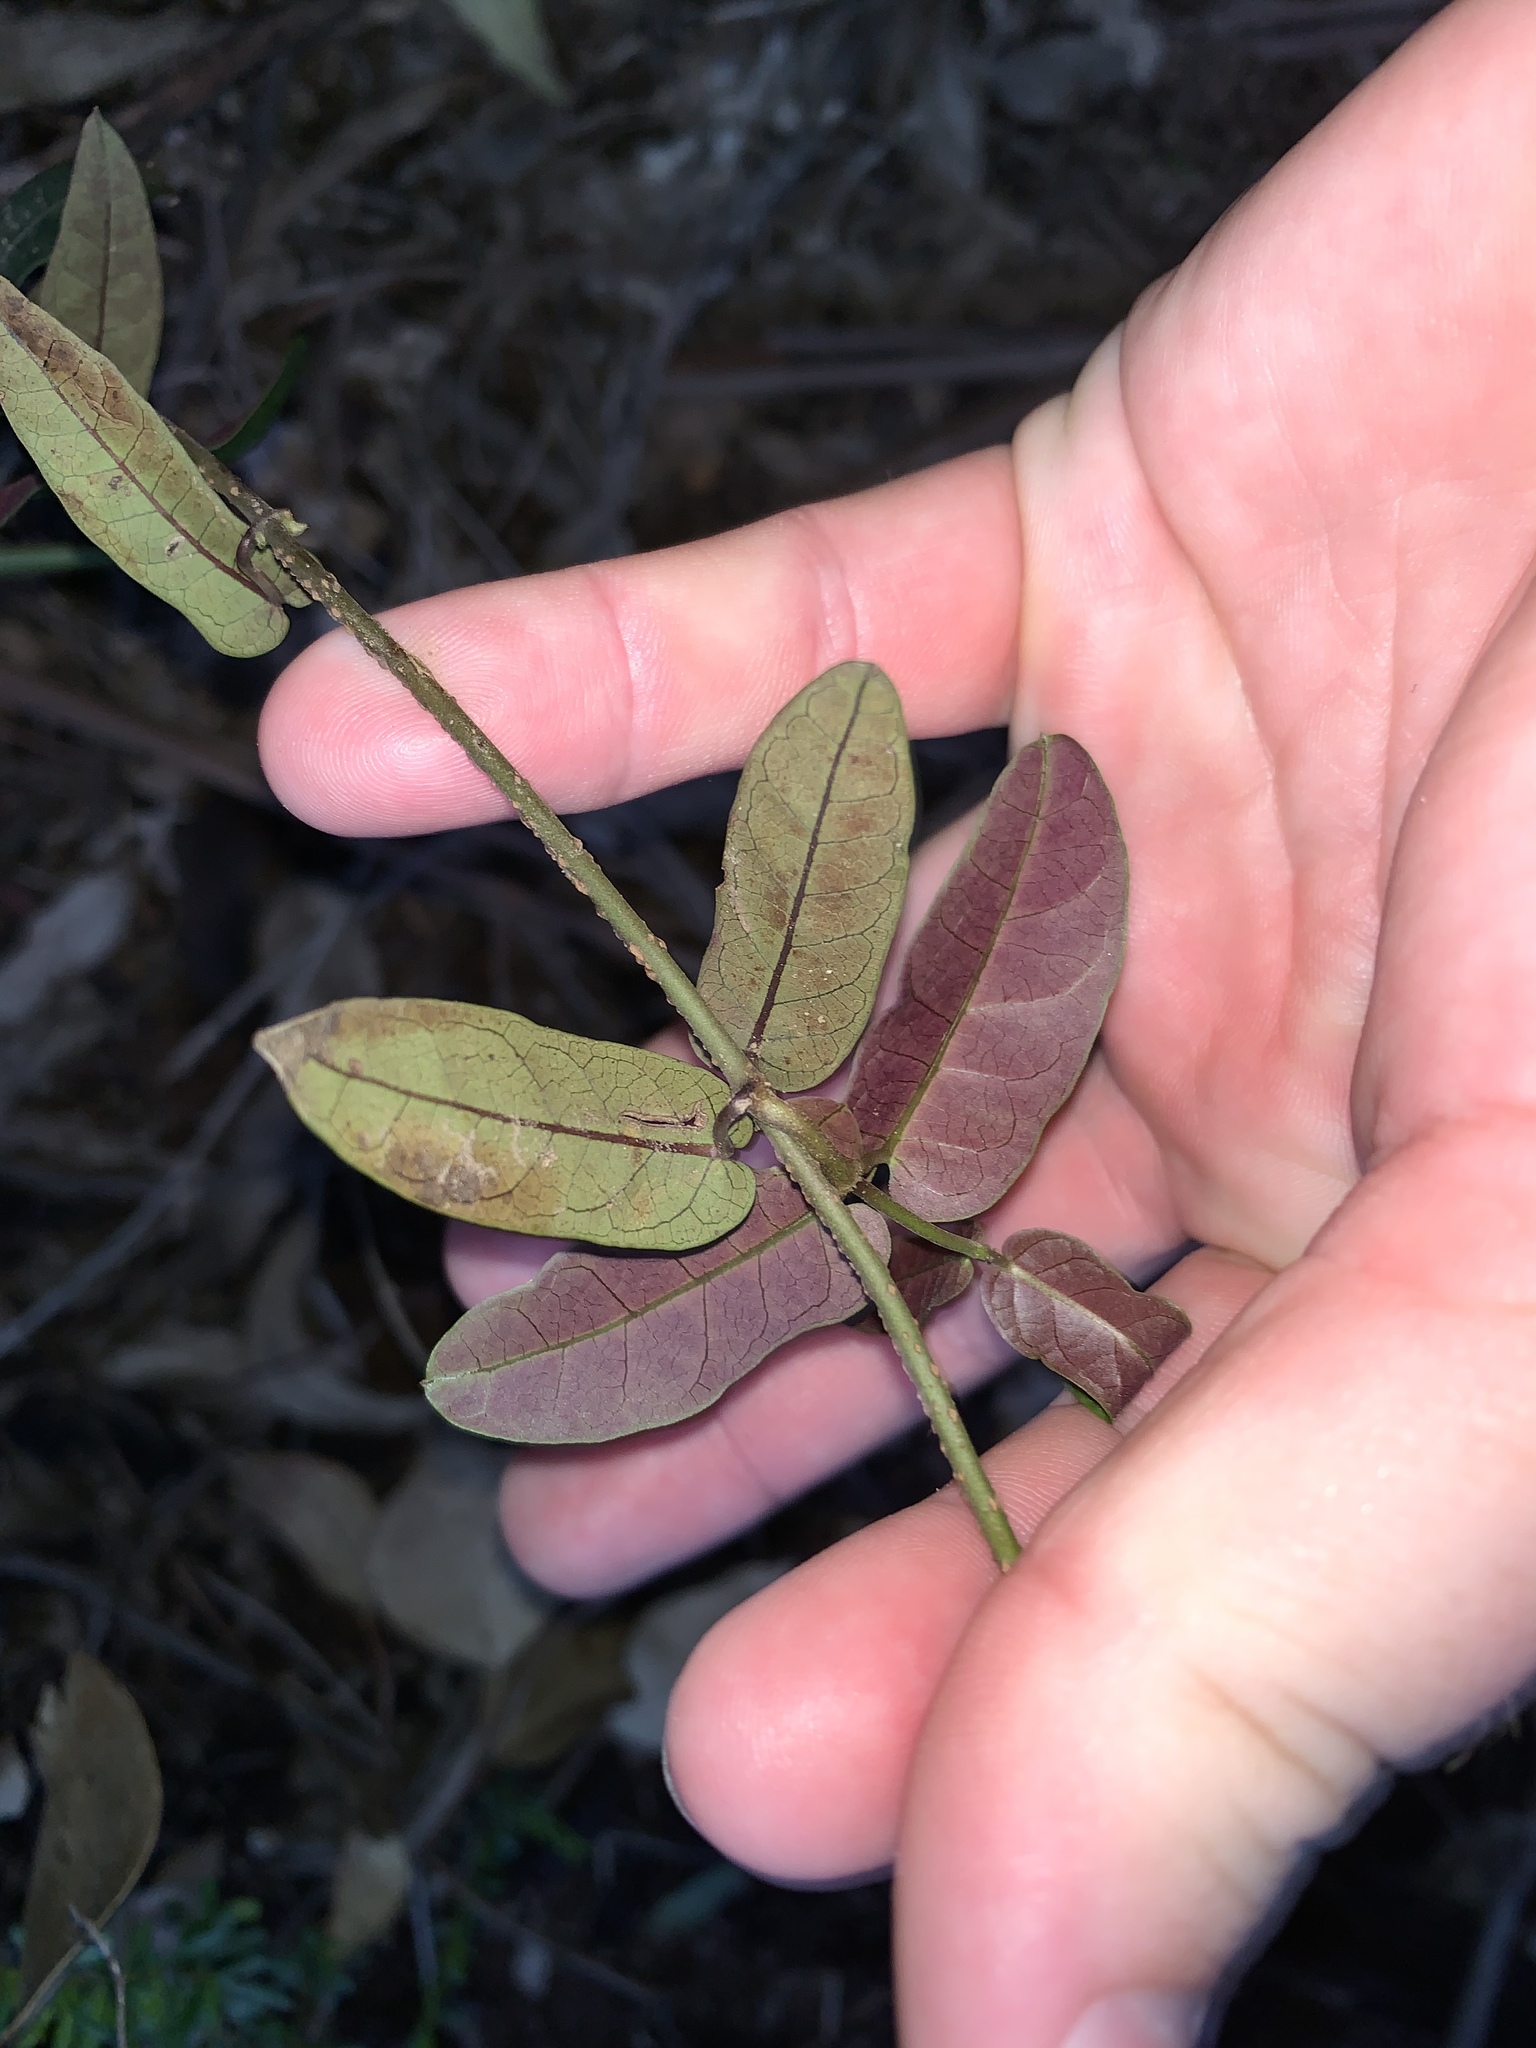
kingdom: Plantae
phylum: Tracheophyta
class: Magnoliopsida
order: Gentianales
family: Apocynaceae
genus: Parsonsia
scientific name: Parsonsia straminea
